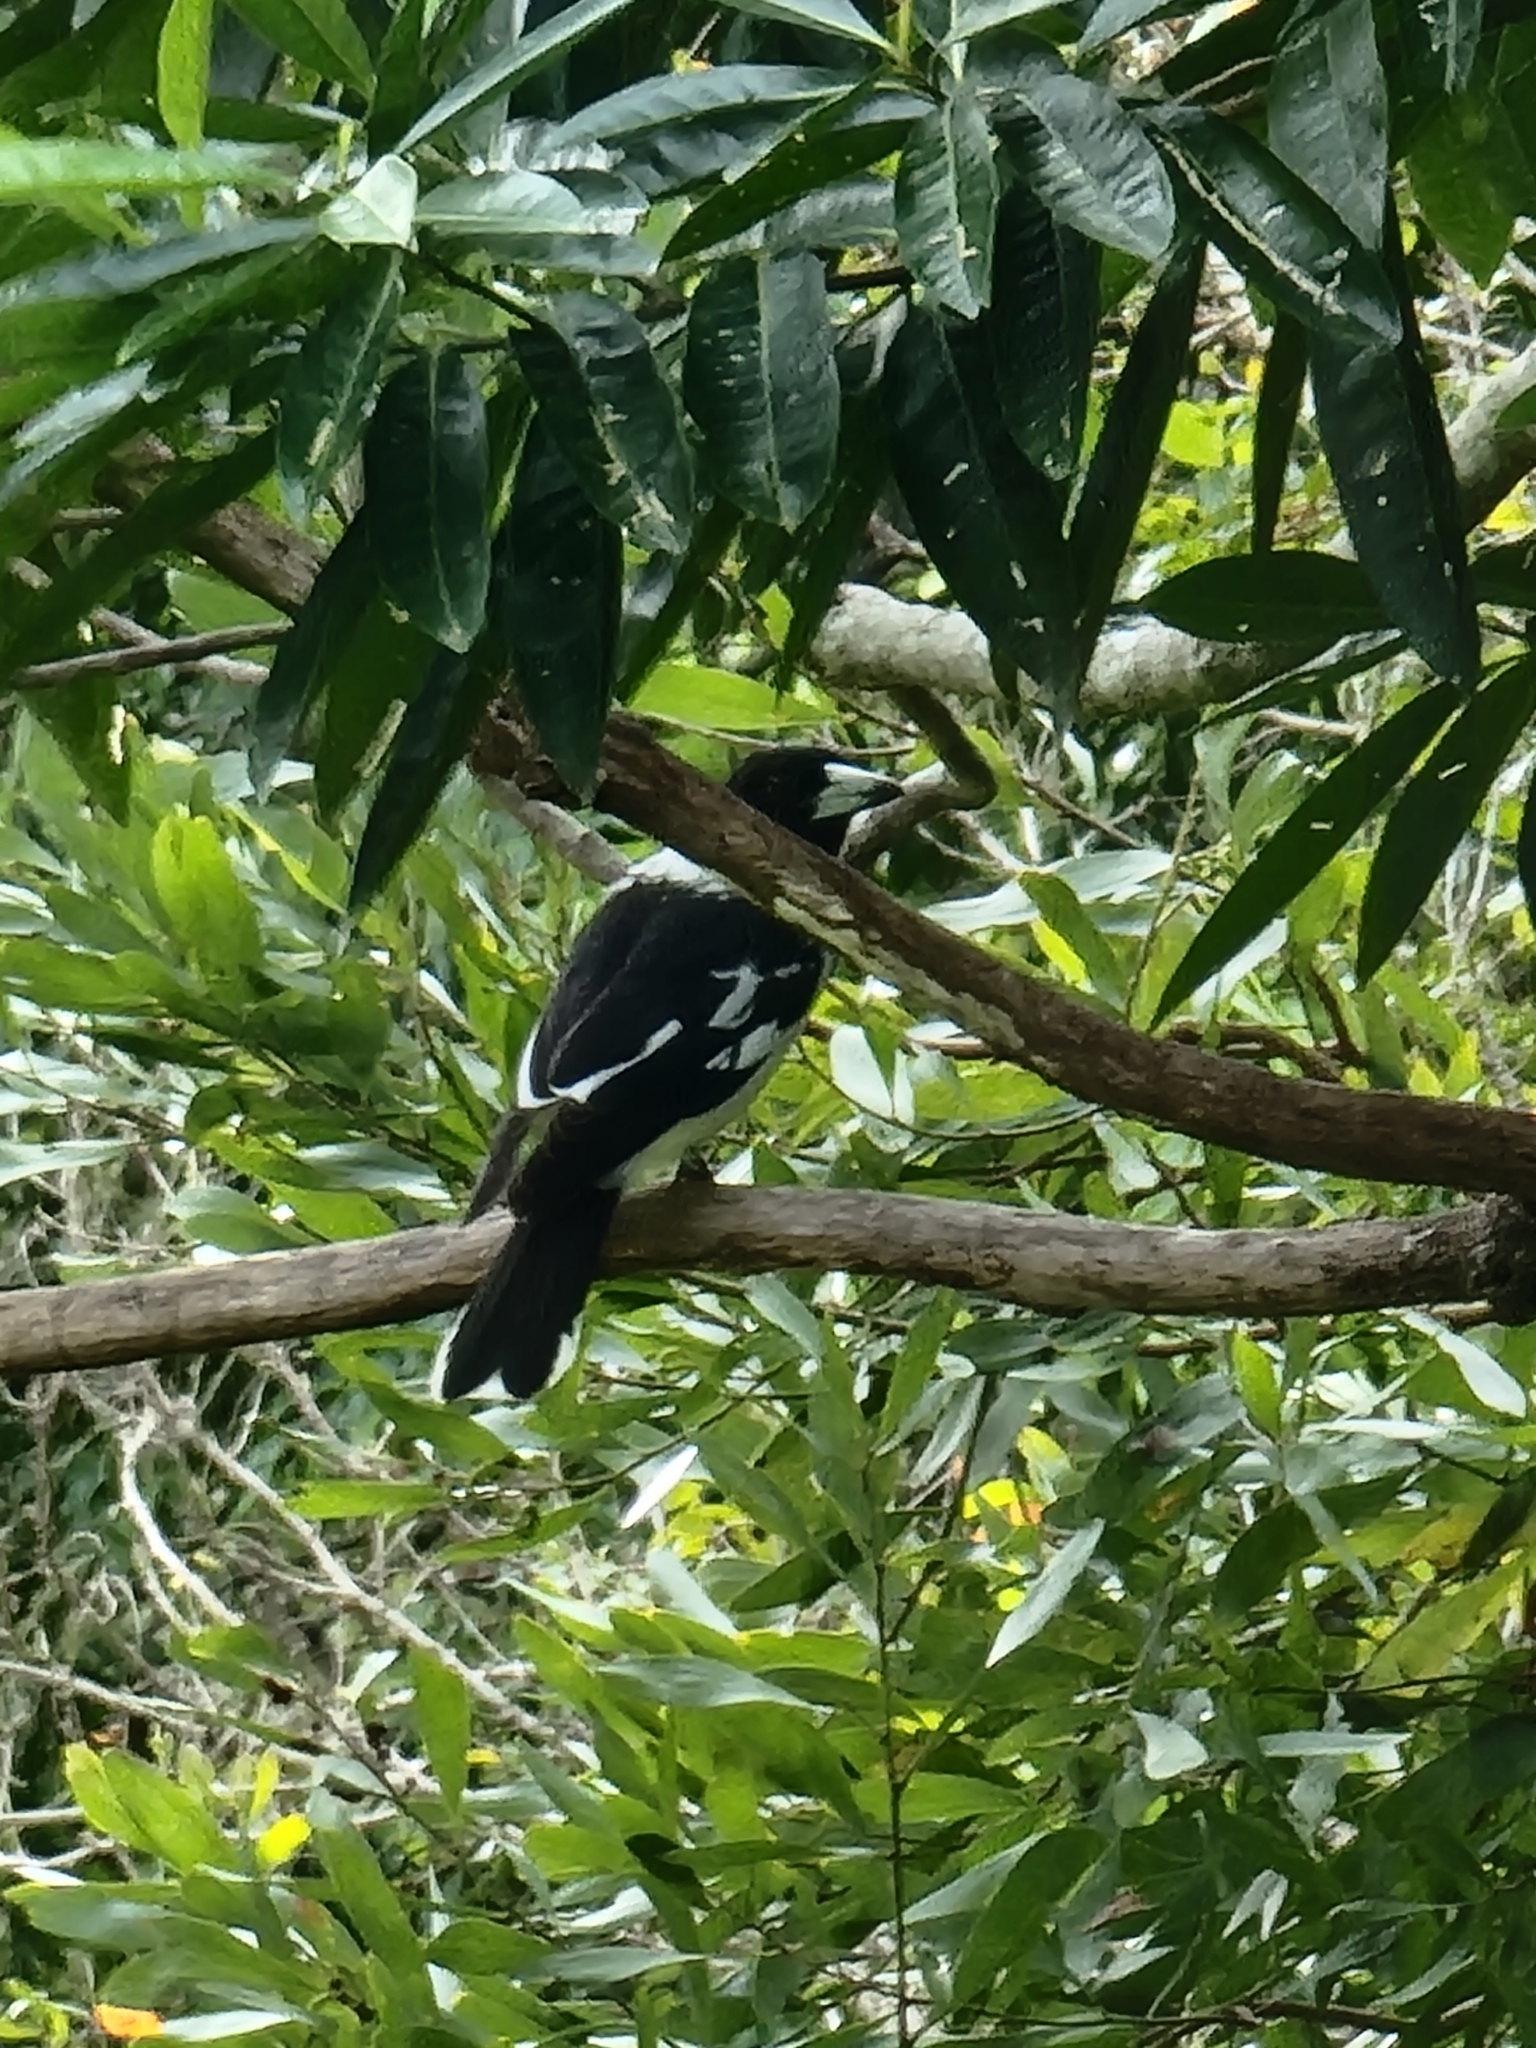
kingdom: Animalia
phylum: Chordata
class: Aves
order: Passeriformes
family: Cracticidae
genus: Cracticus
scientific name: Cracticus nigrogularis
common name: Pied butcherbird
